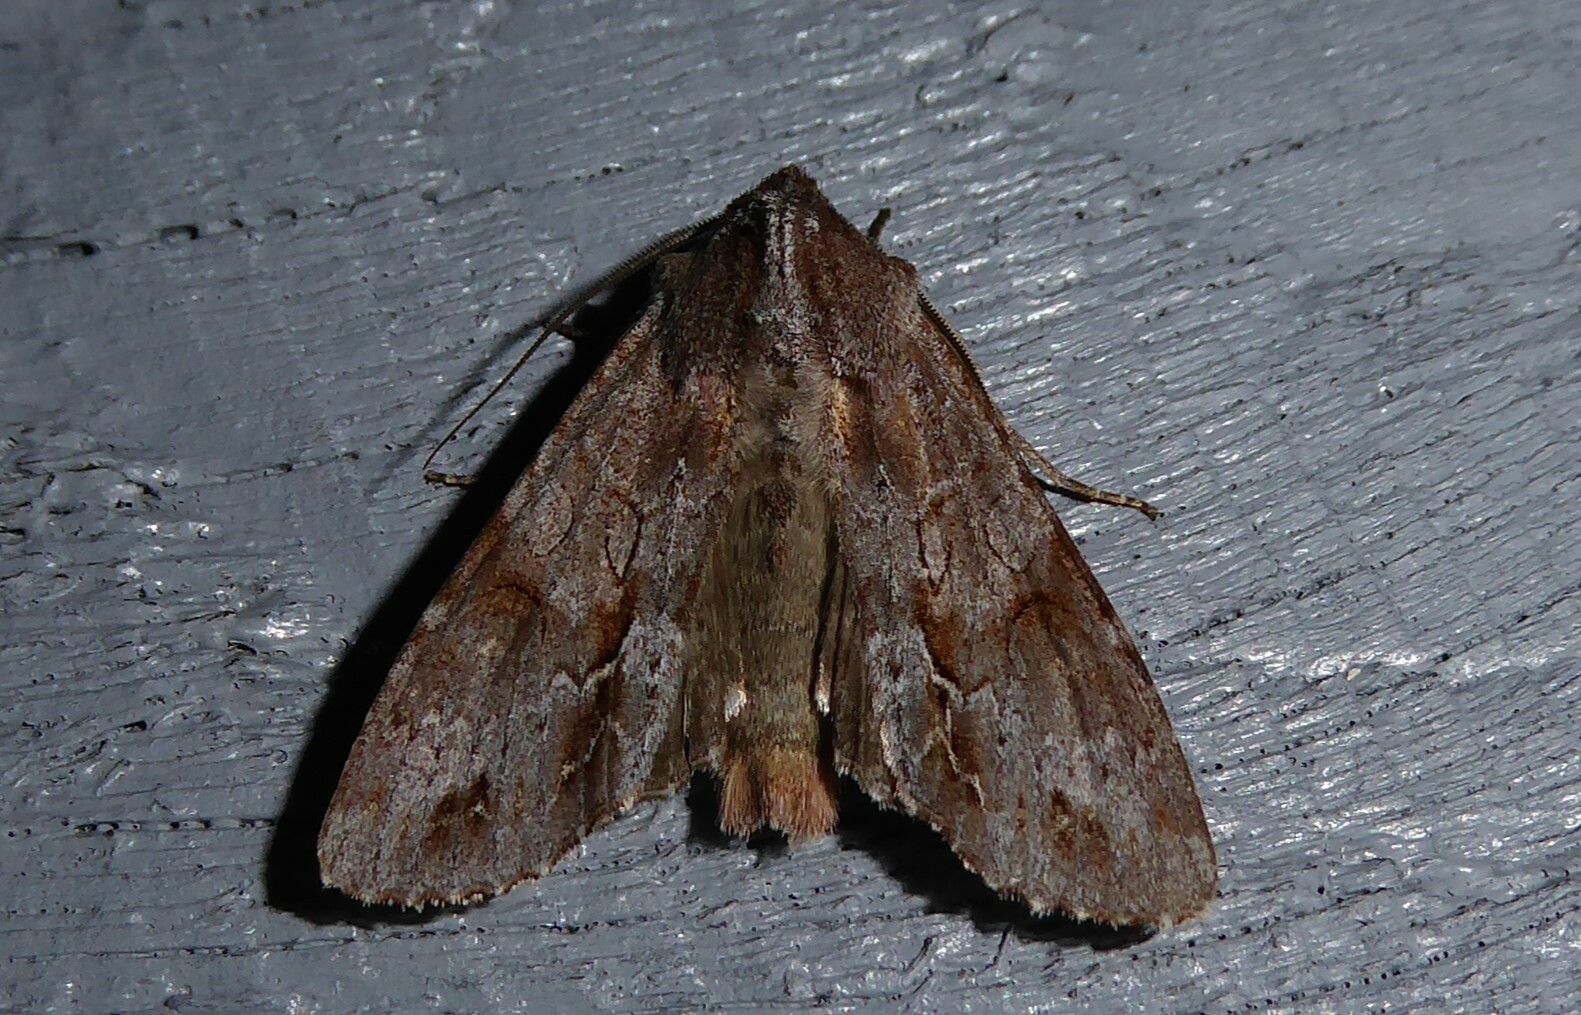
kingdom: Animalia
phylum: Arthropoda
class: Insecta
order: Lepidoptera
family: Noctuidae
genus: Ichneutica
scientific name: Ichneutica
